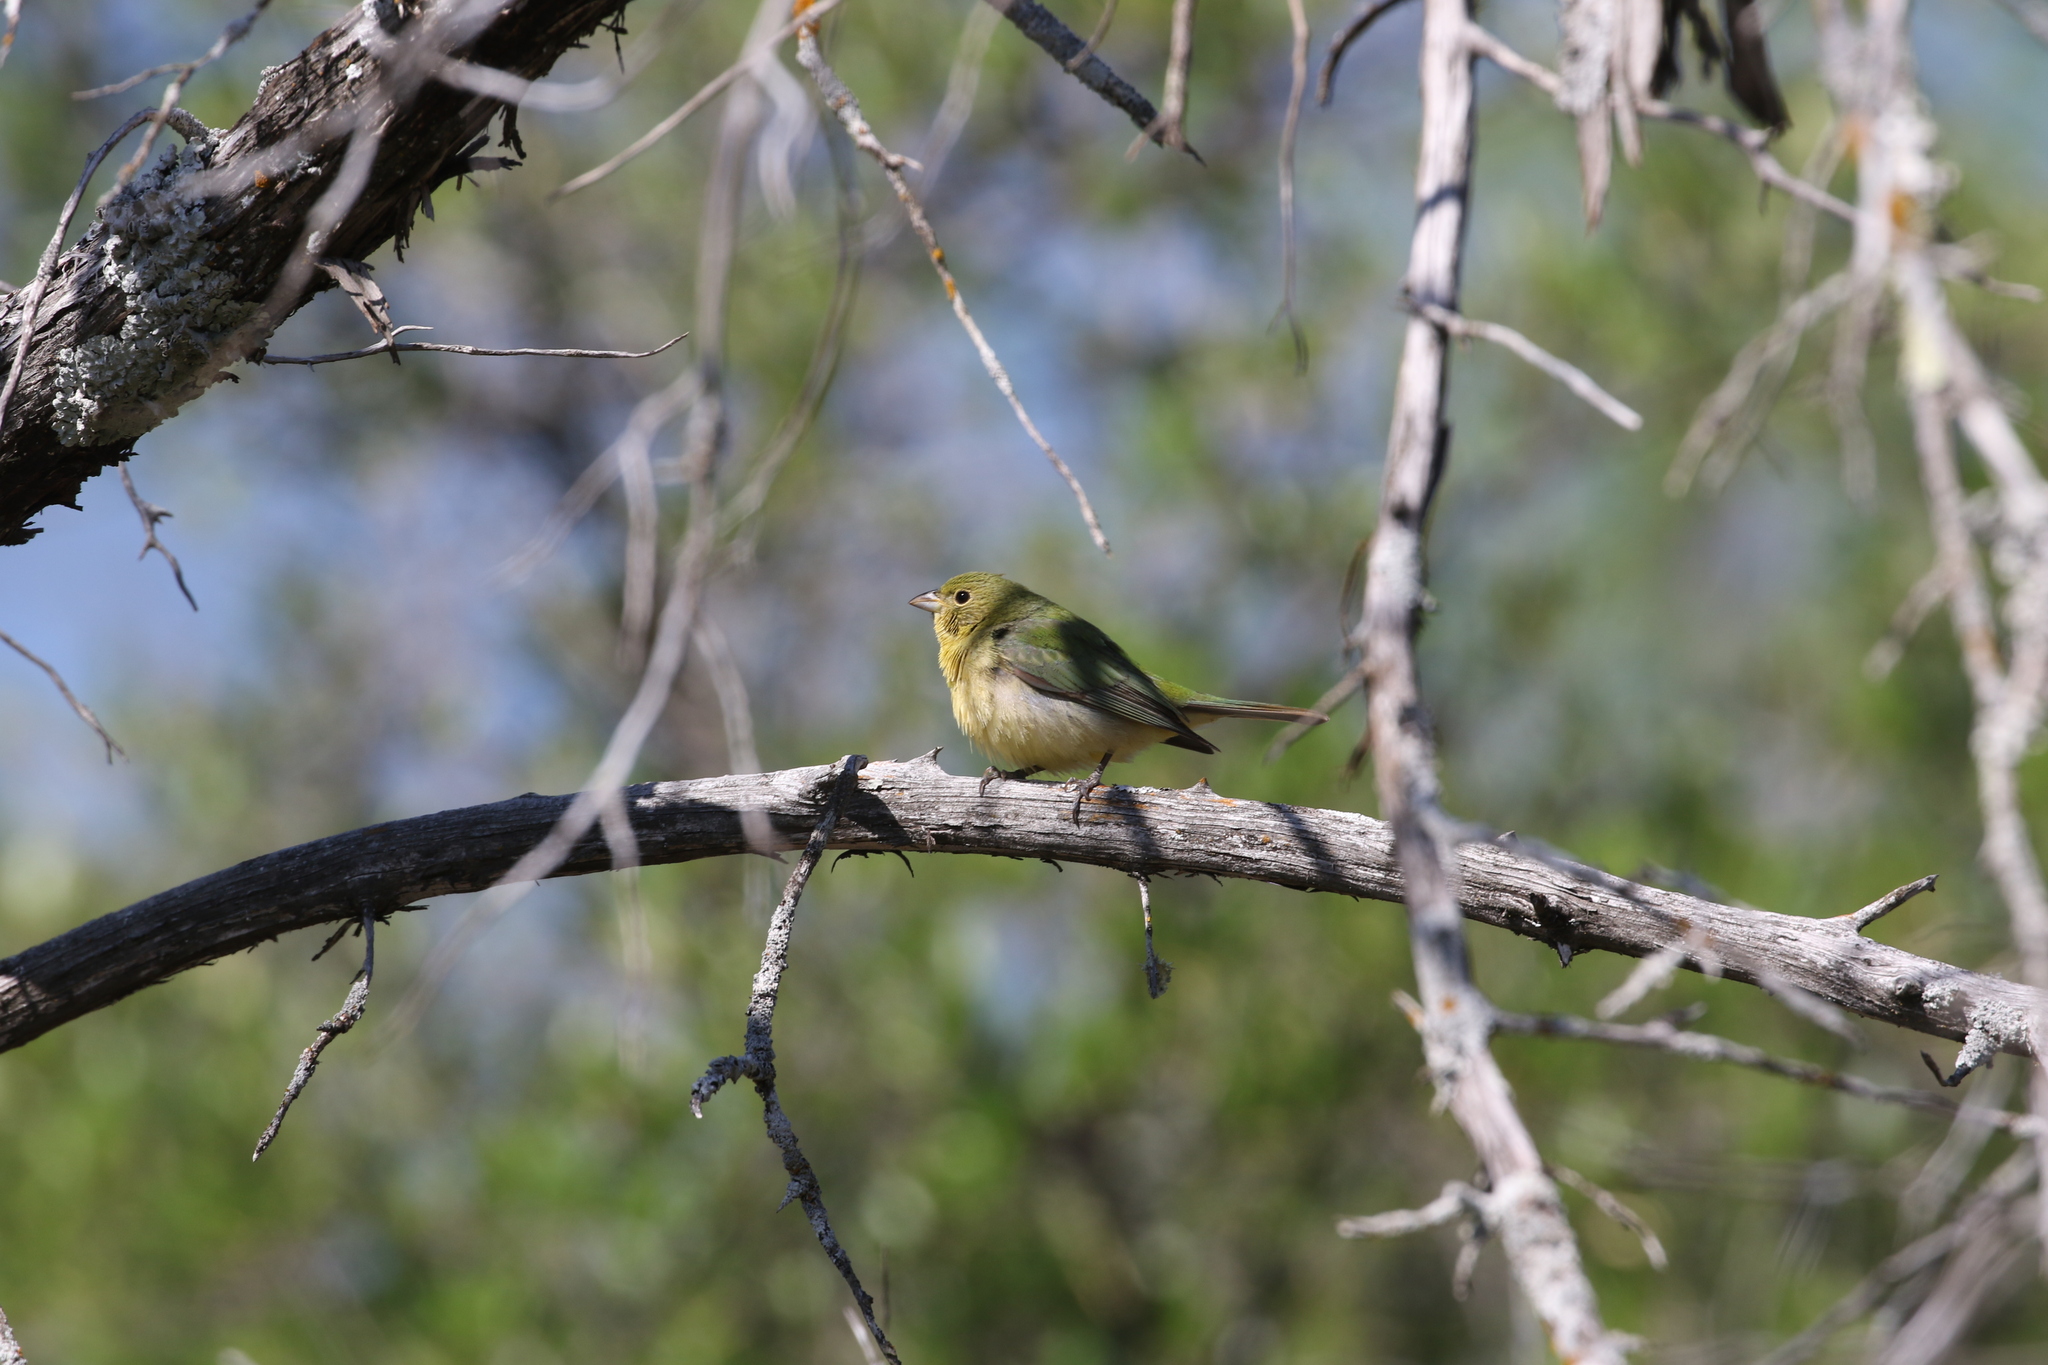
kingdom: Animalia
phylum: Chordata
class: Aves
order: Passeriformes
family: Cardinalidae
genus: Passerina
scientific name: Passerina ciris
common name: Painted bunting
